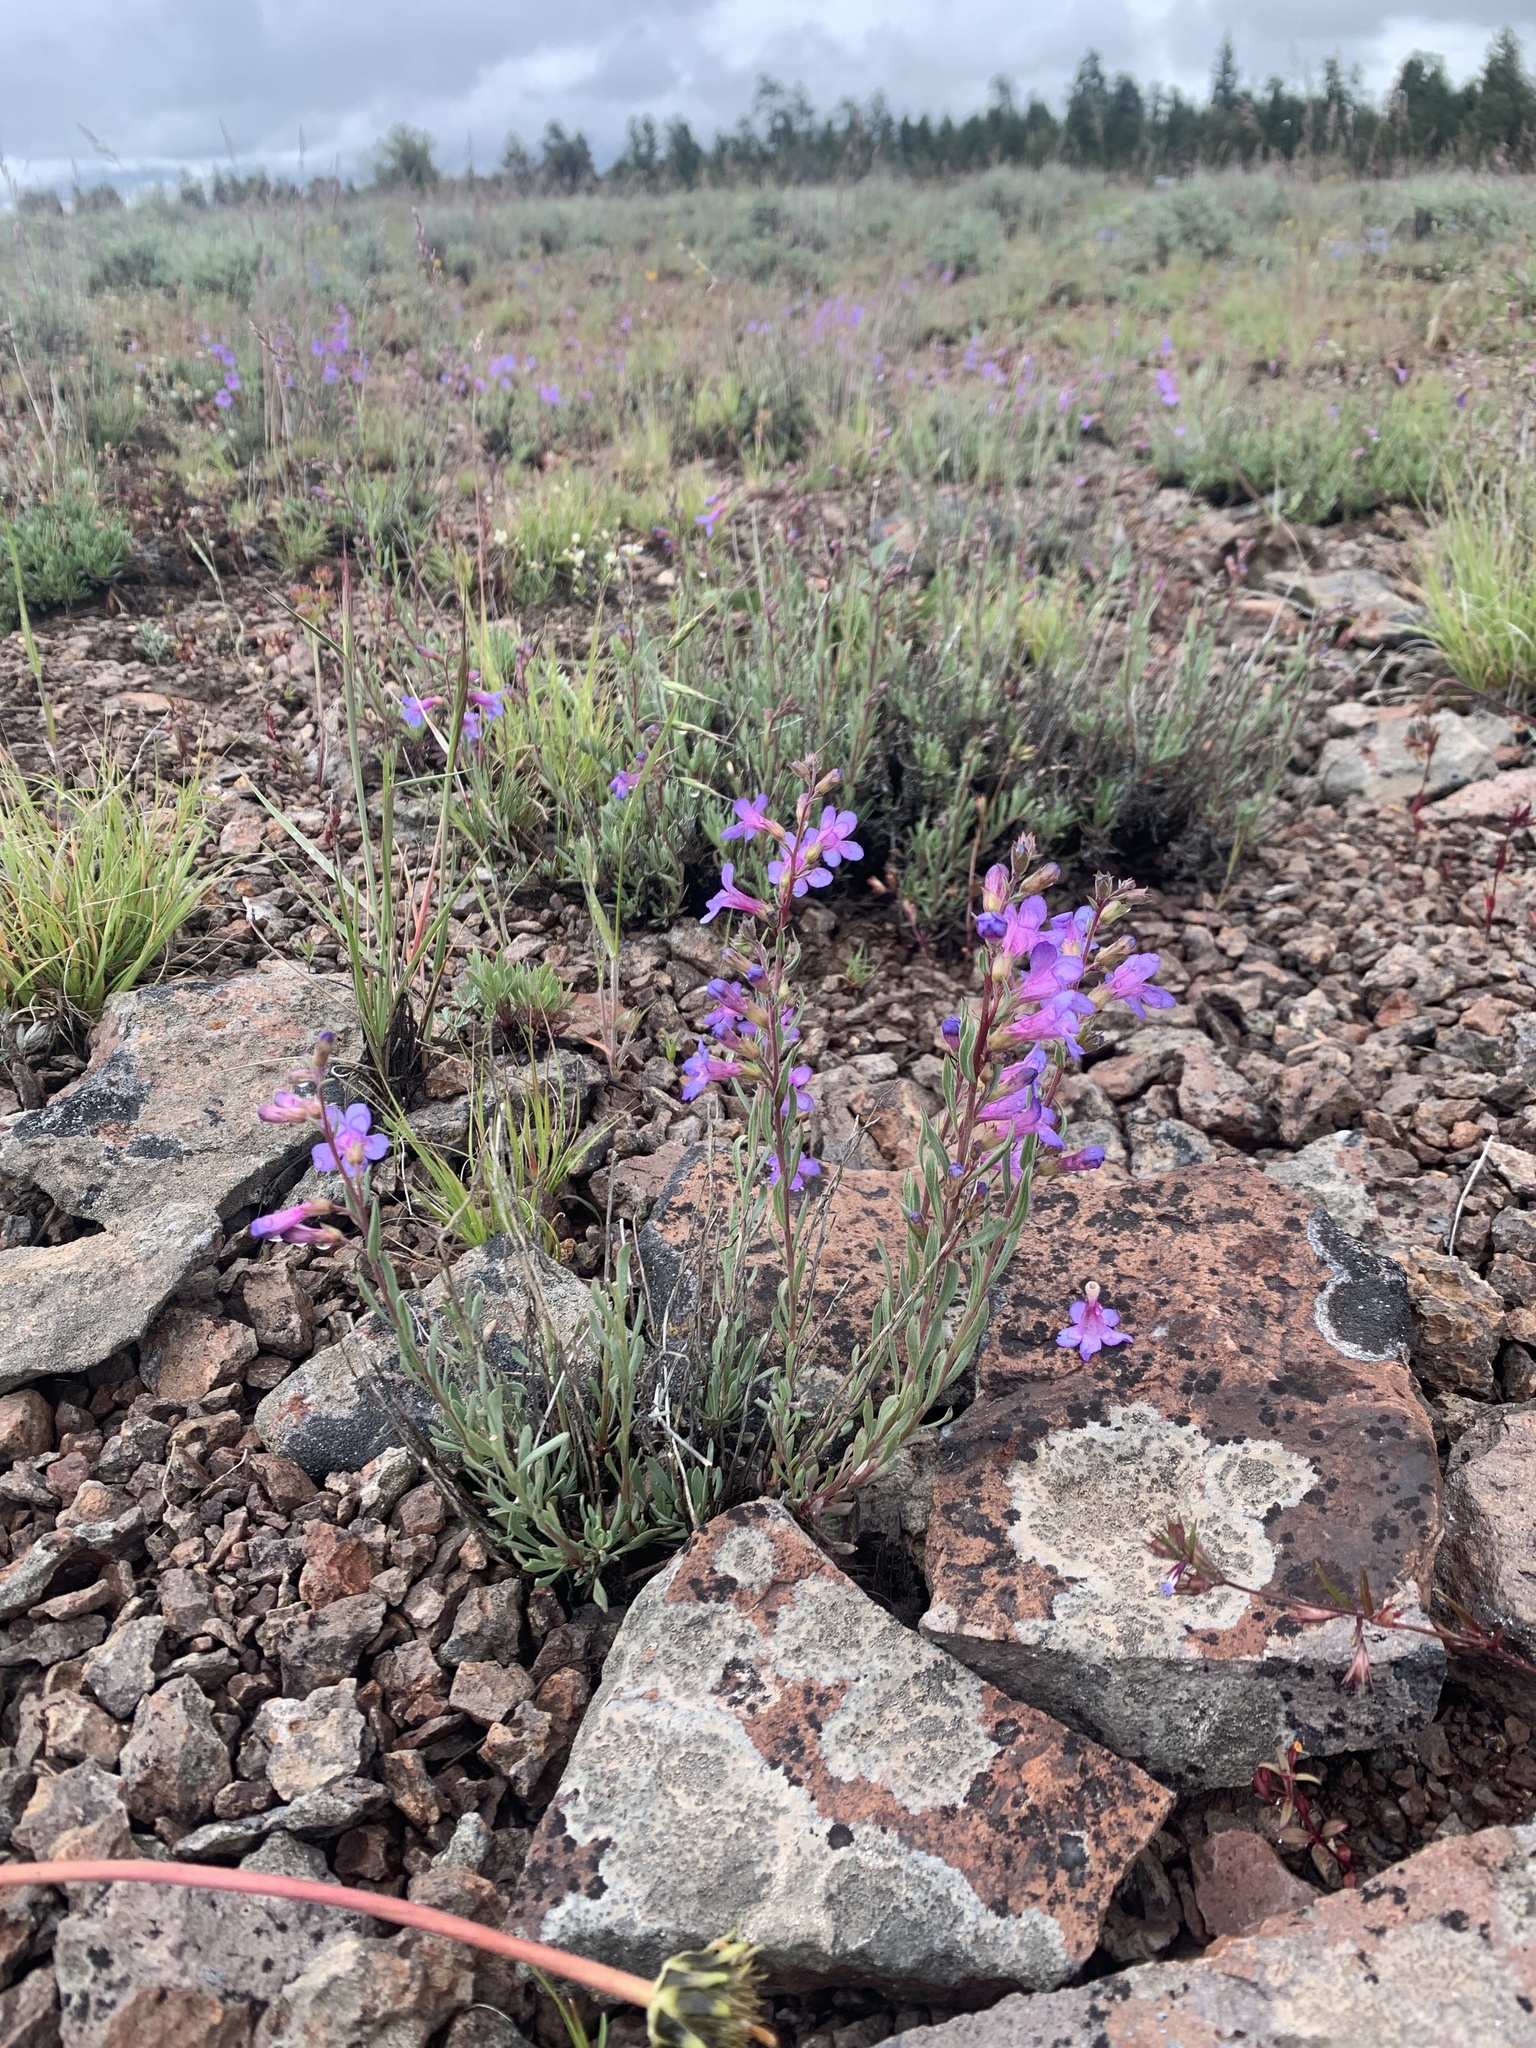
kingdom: Plantae
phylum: Tracheophyta
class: Magnoliopsida
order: Lamiales
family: Plantaginaceae
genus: Penstemon
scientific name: Penstemon humilis
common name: Low penstemon
